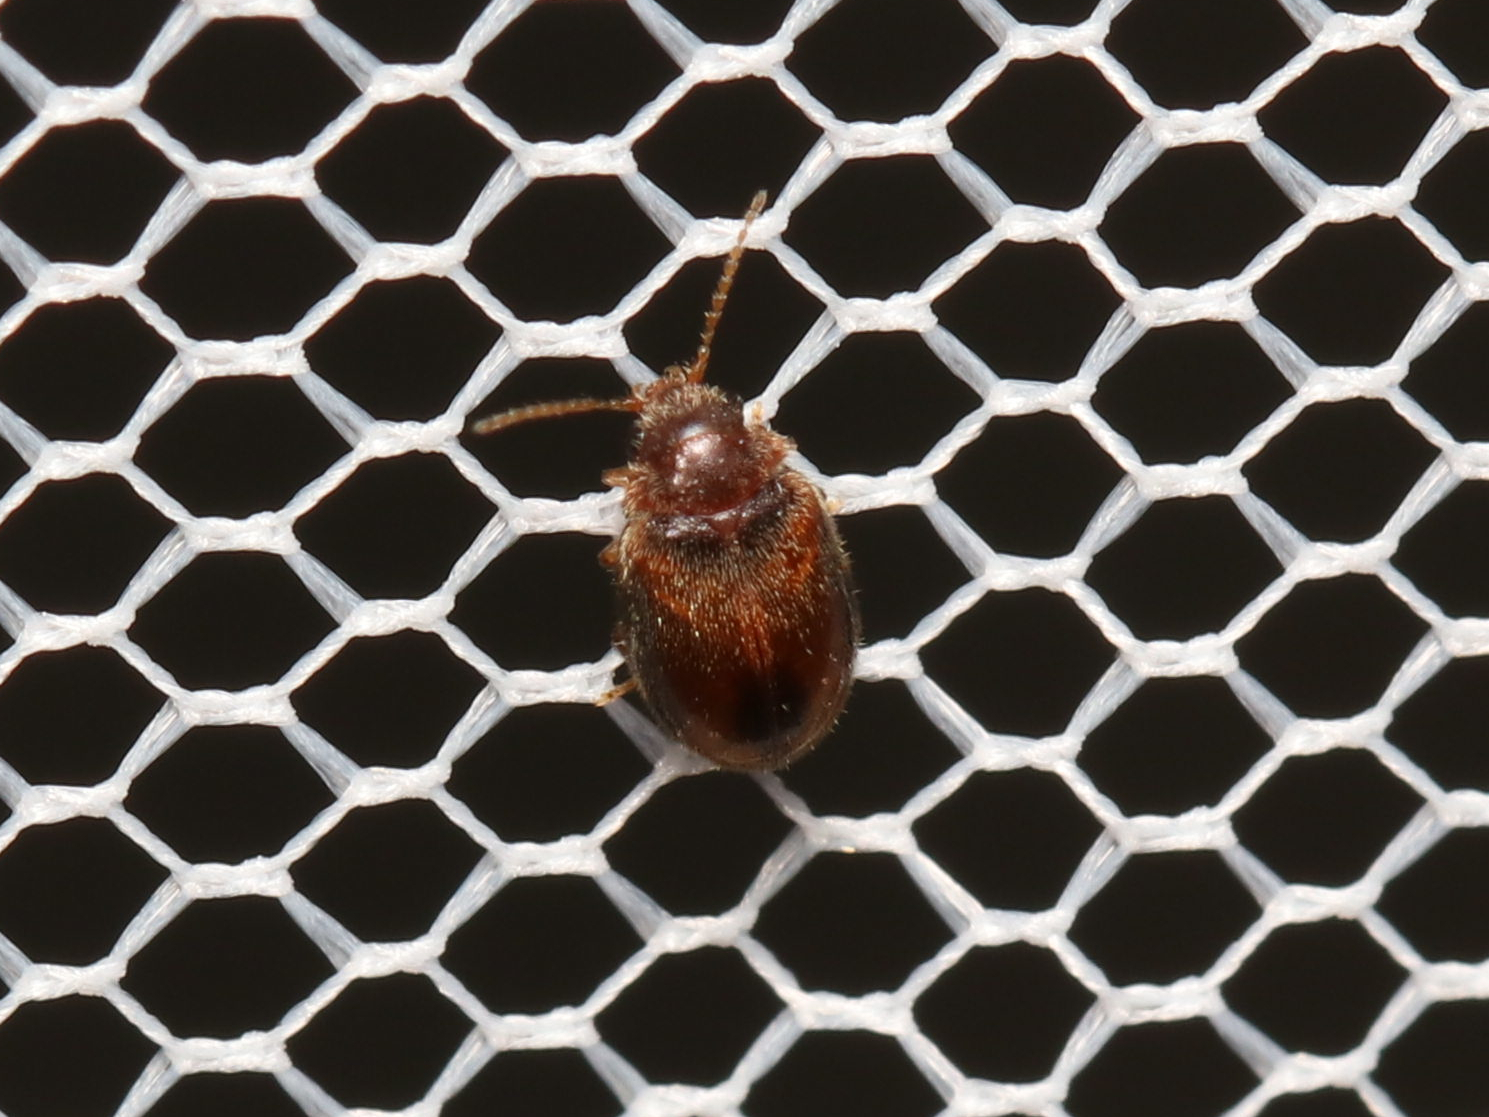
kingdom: Animalia
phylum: Arthropoda
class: Insecta
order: Coleoptera
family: Scirtidae
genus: Contacyphon
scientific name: Contacyphon
